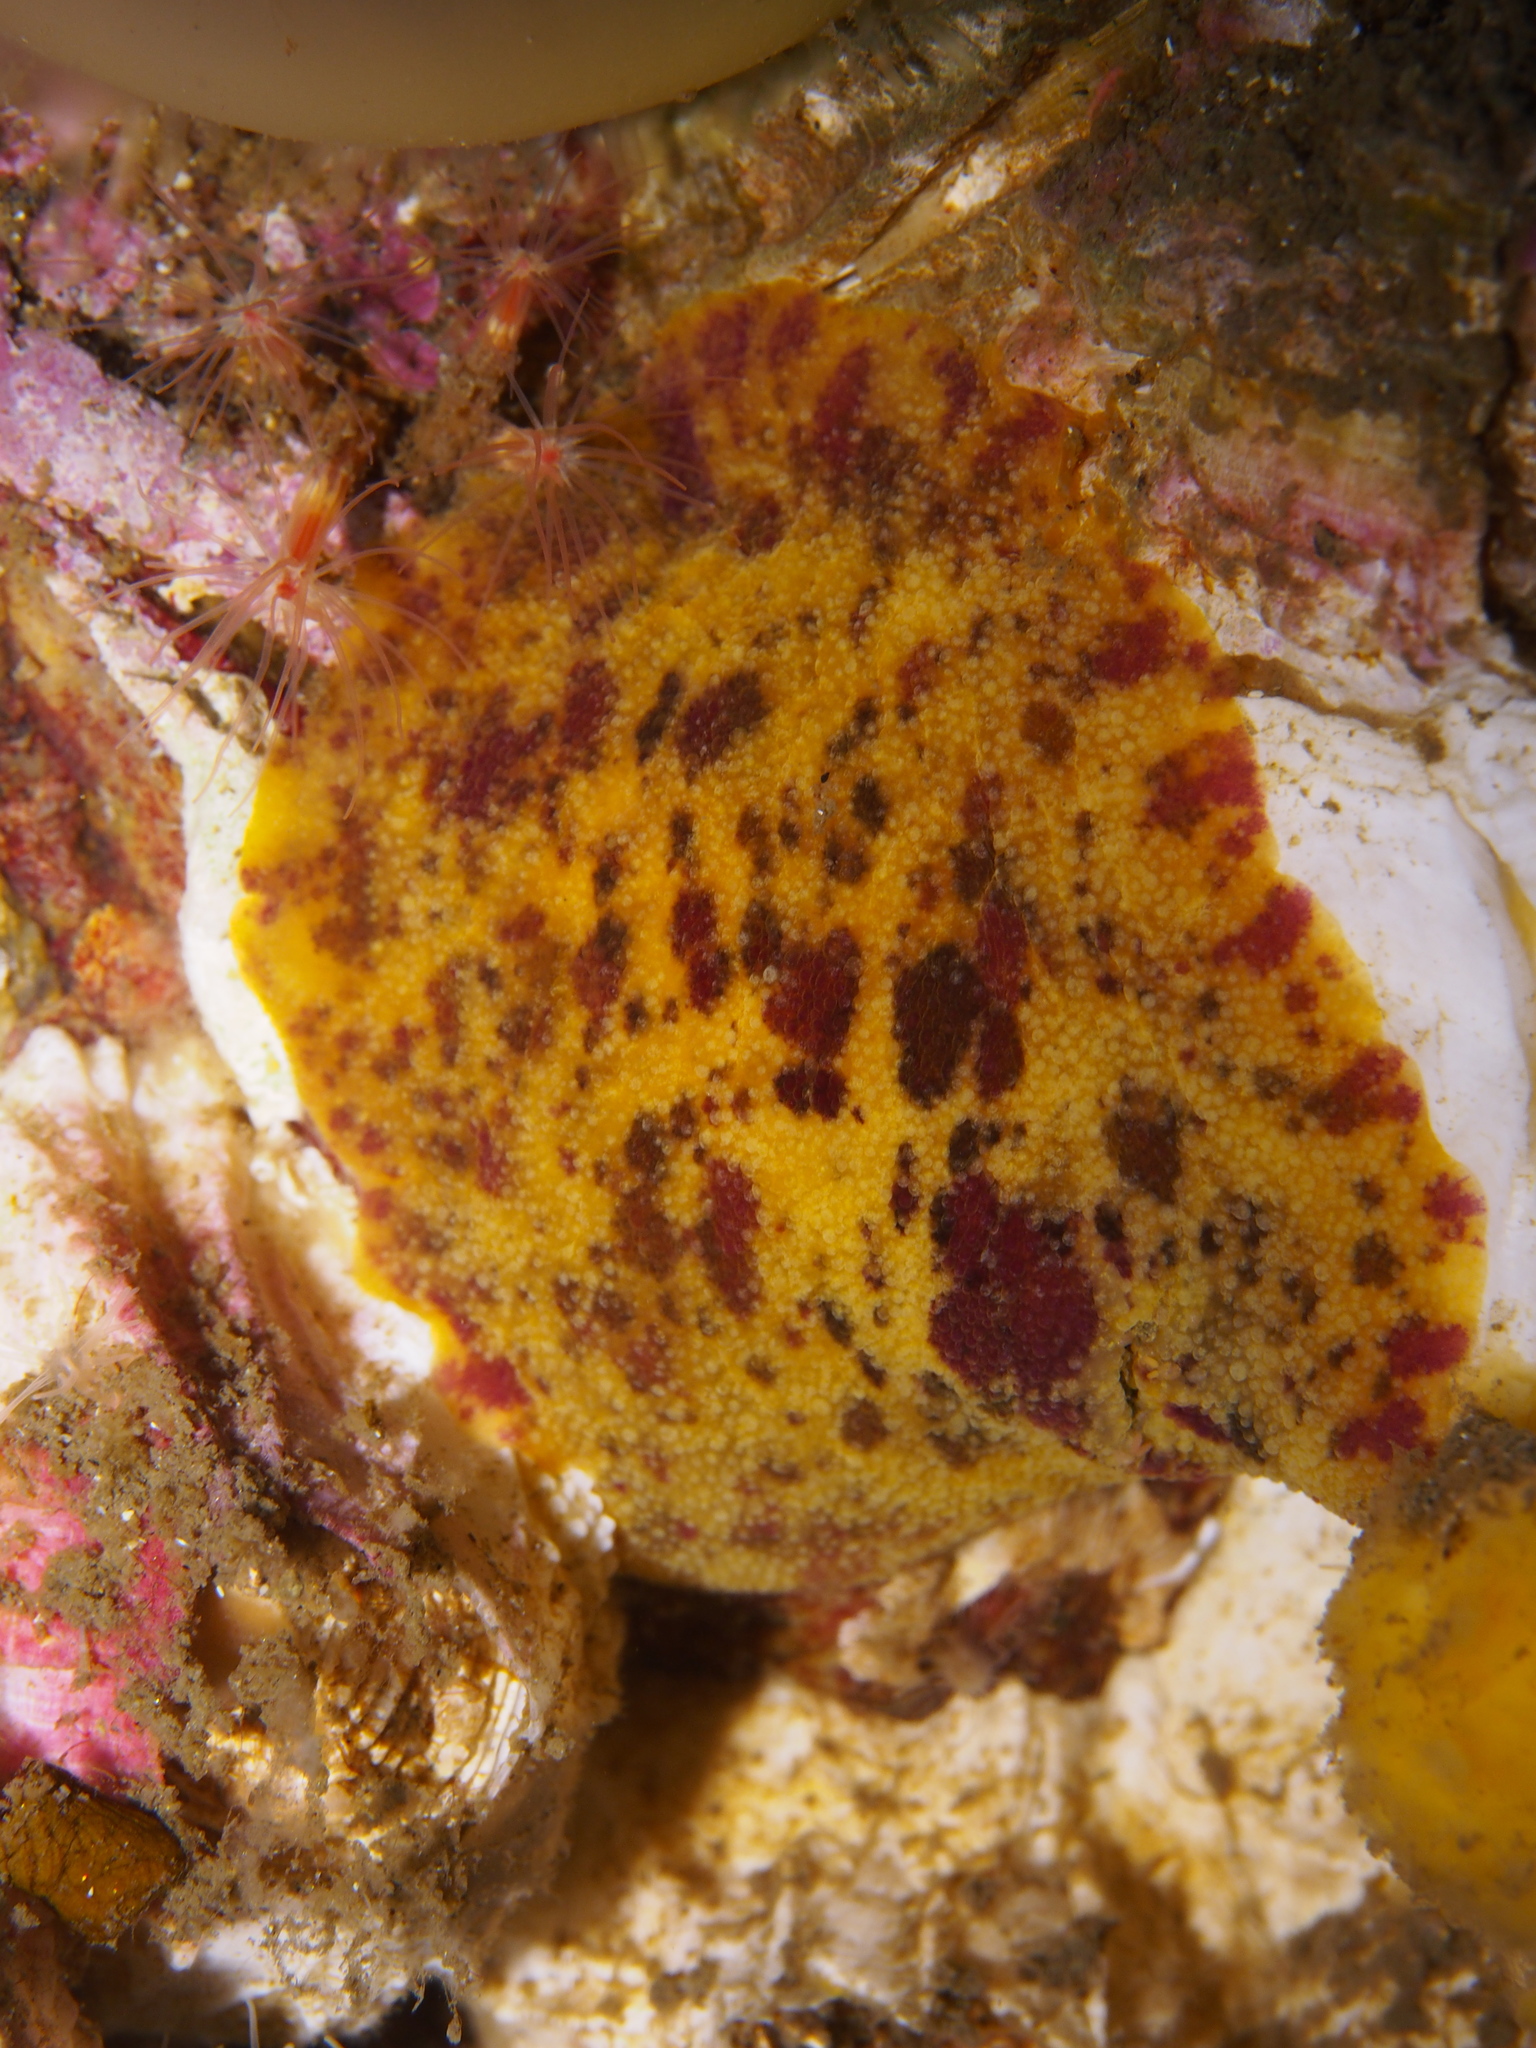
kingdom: Animalia
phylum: Mollusca
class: Gastropoda
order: Nudibranchia
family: Dorididae
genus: Doris
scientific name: Doris pseudoargus
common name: Sea lemon
